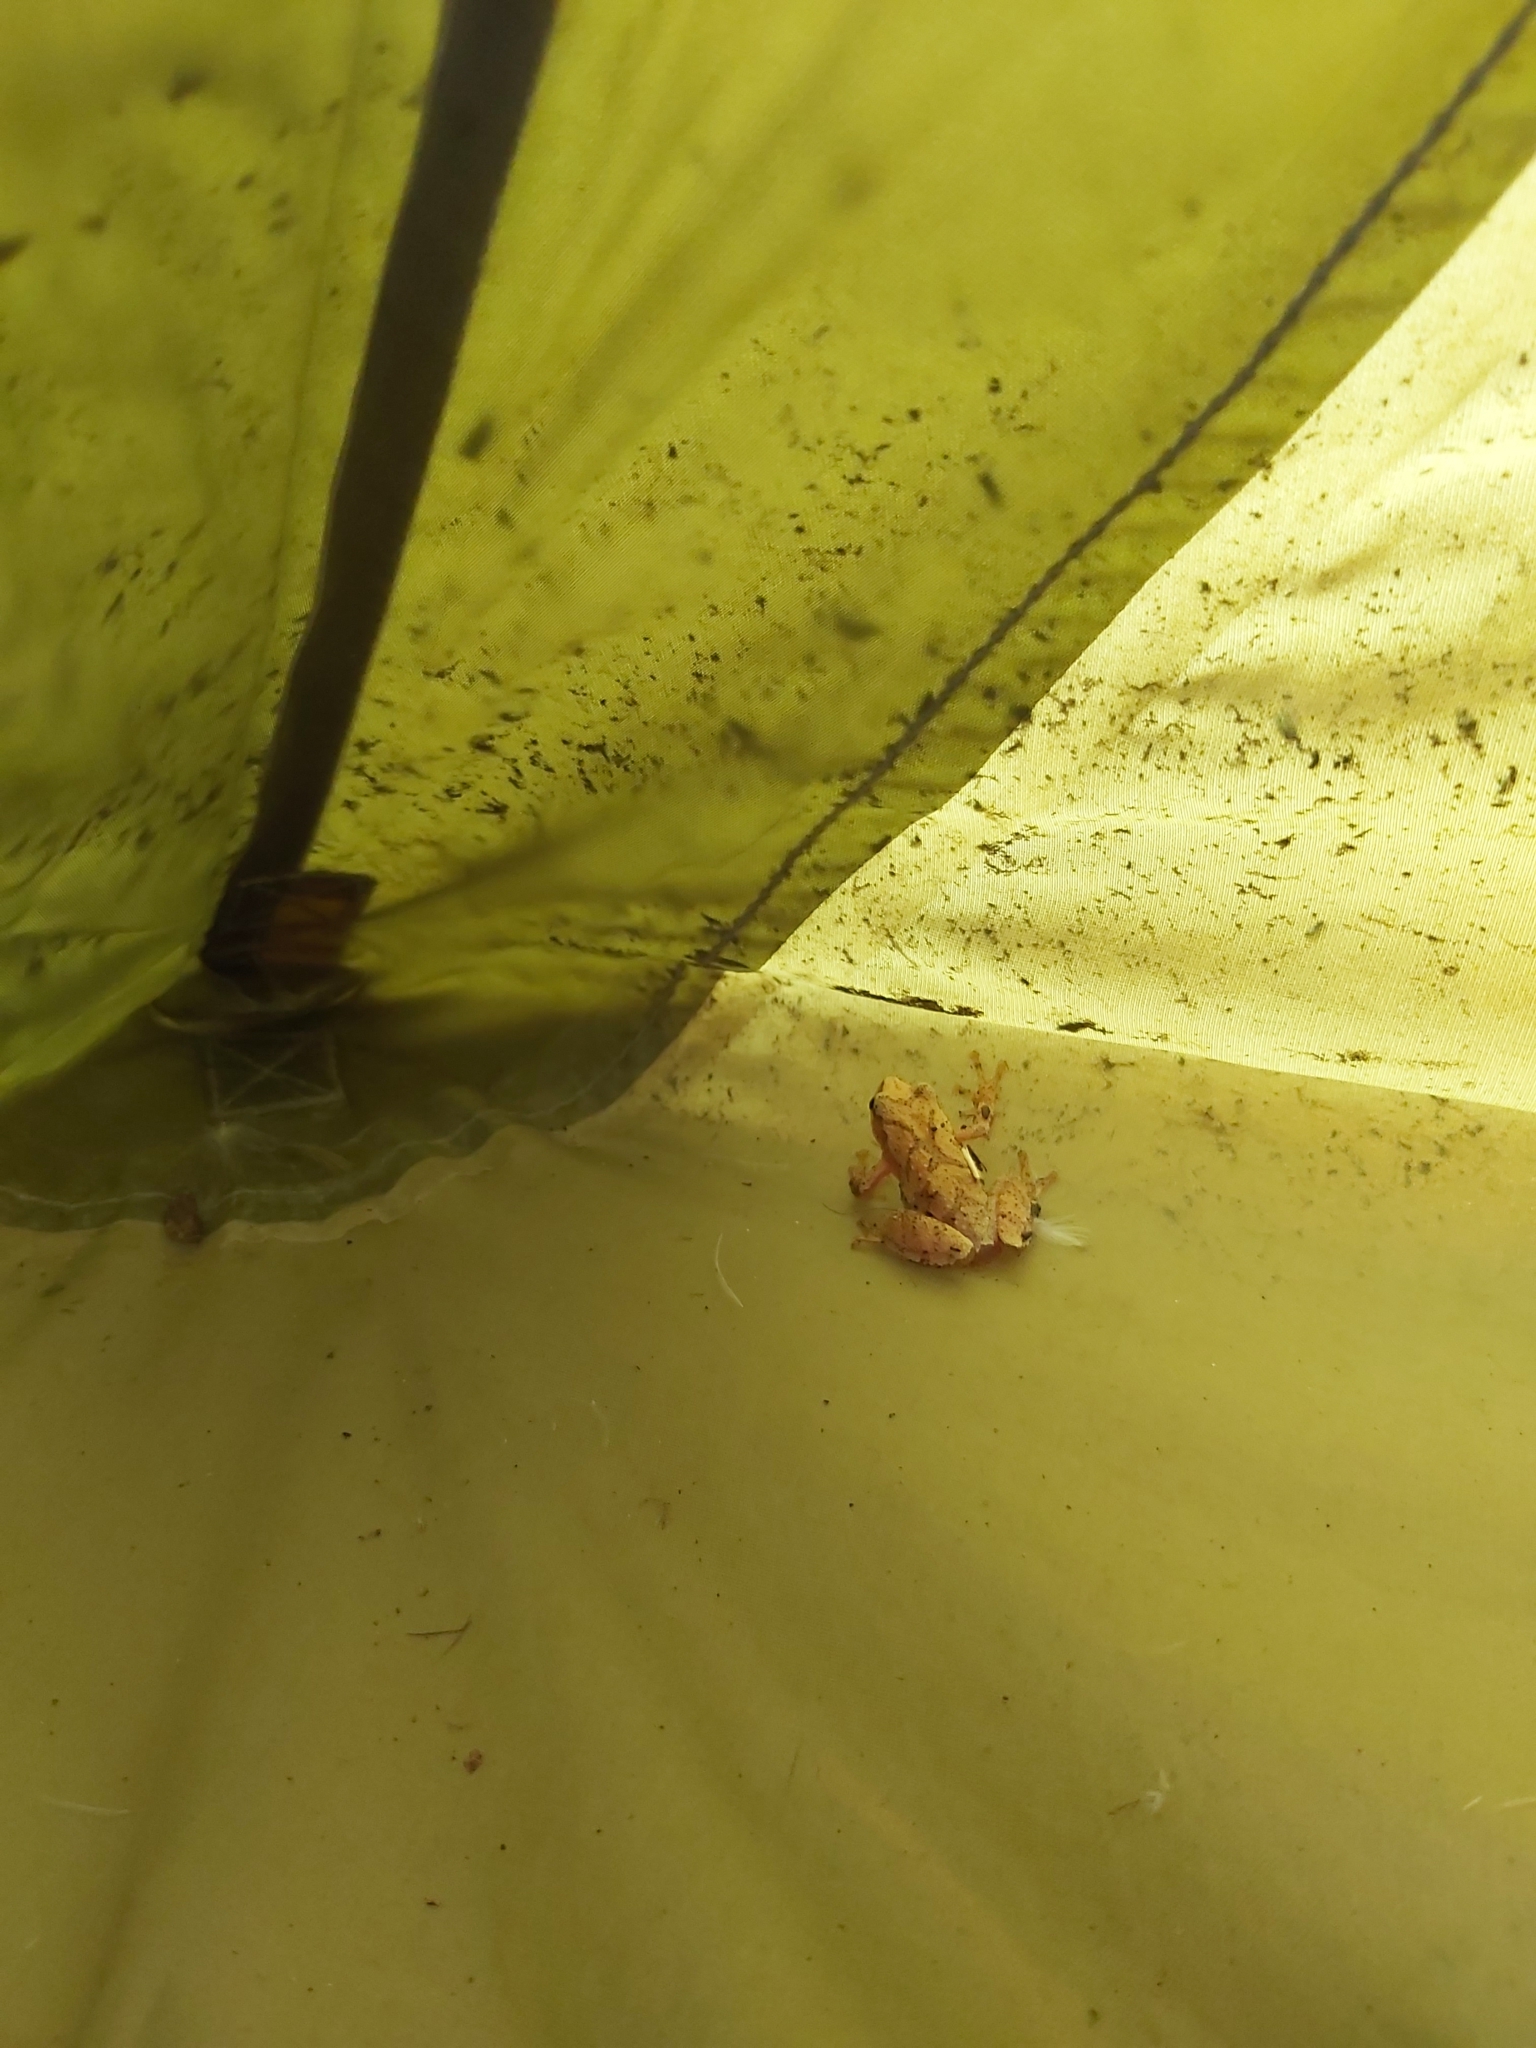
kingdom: Animalia
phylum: Chordata
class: Amphibia
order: Anura
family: Hylidae
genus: Pseudacris
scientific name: Pseudacris crucifer
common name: Spring peeper
